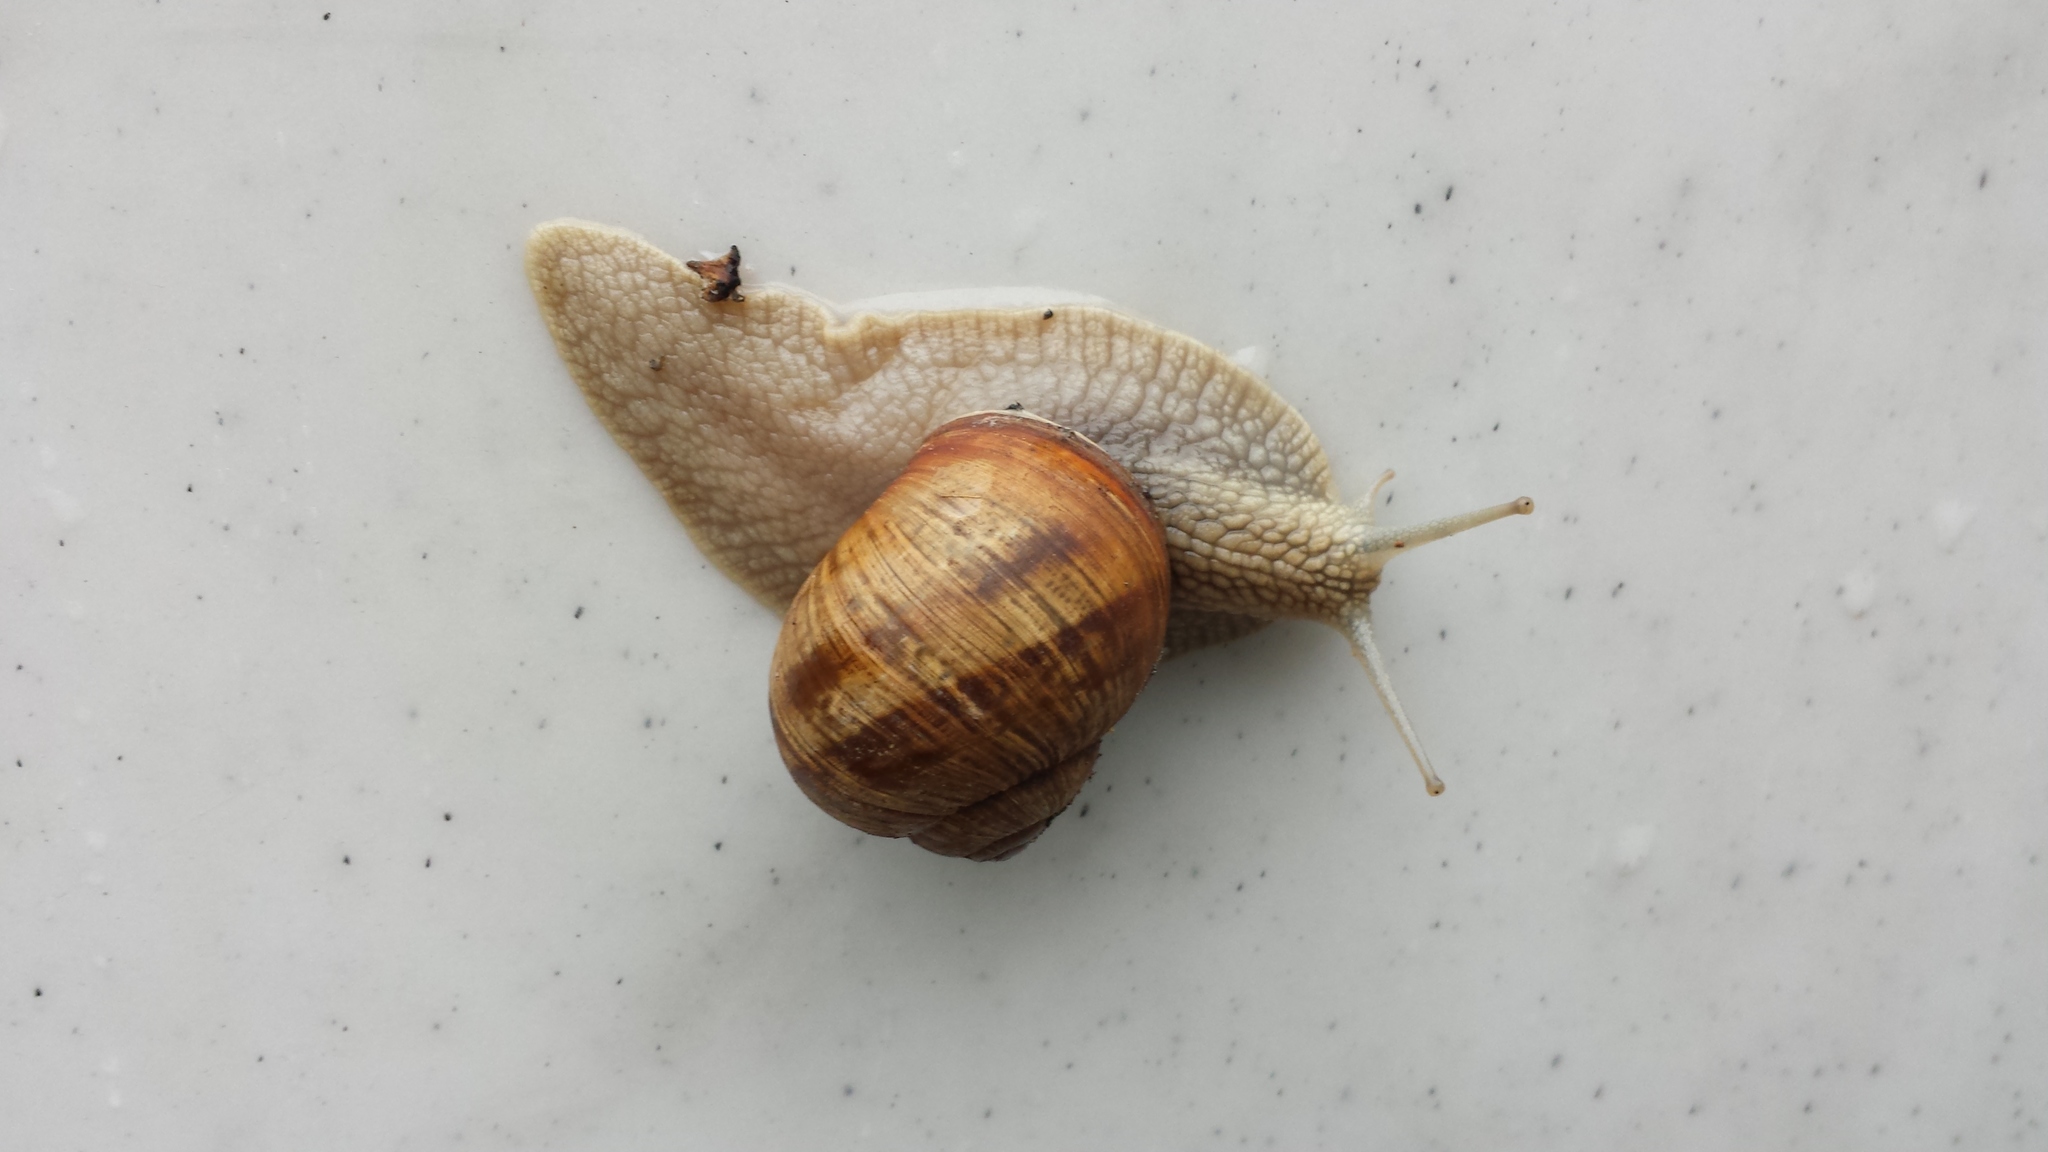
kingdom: Animalia
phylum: Mollusca
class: Gastropoda
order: Stylommatophora
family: Helicidae
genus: Helix
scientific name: Helix pomatia
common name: Roman snail
